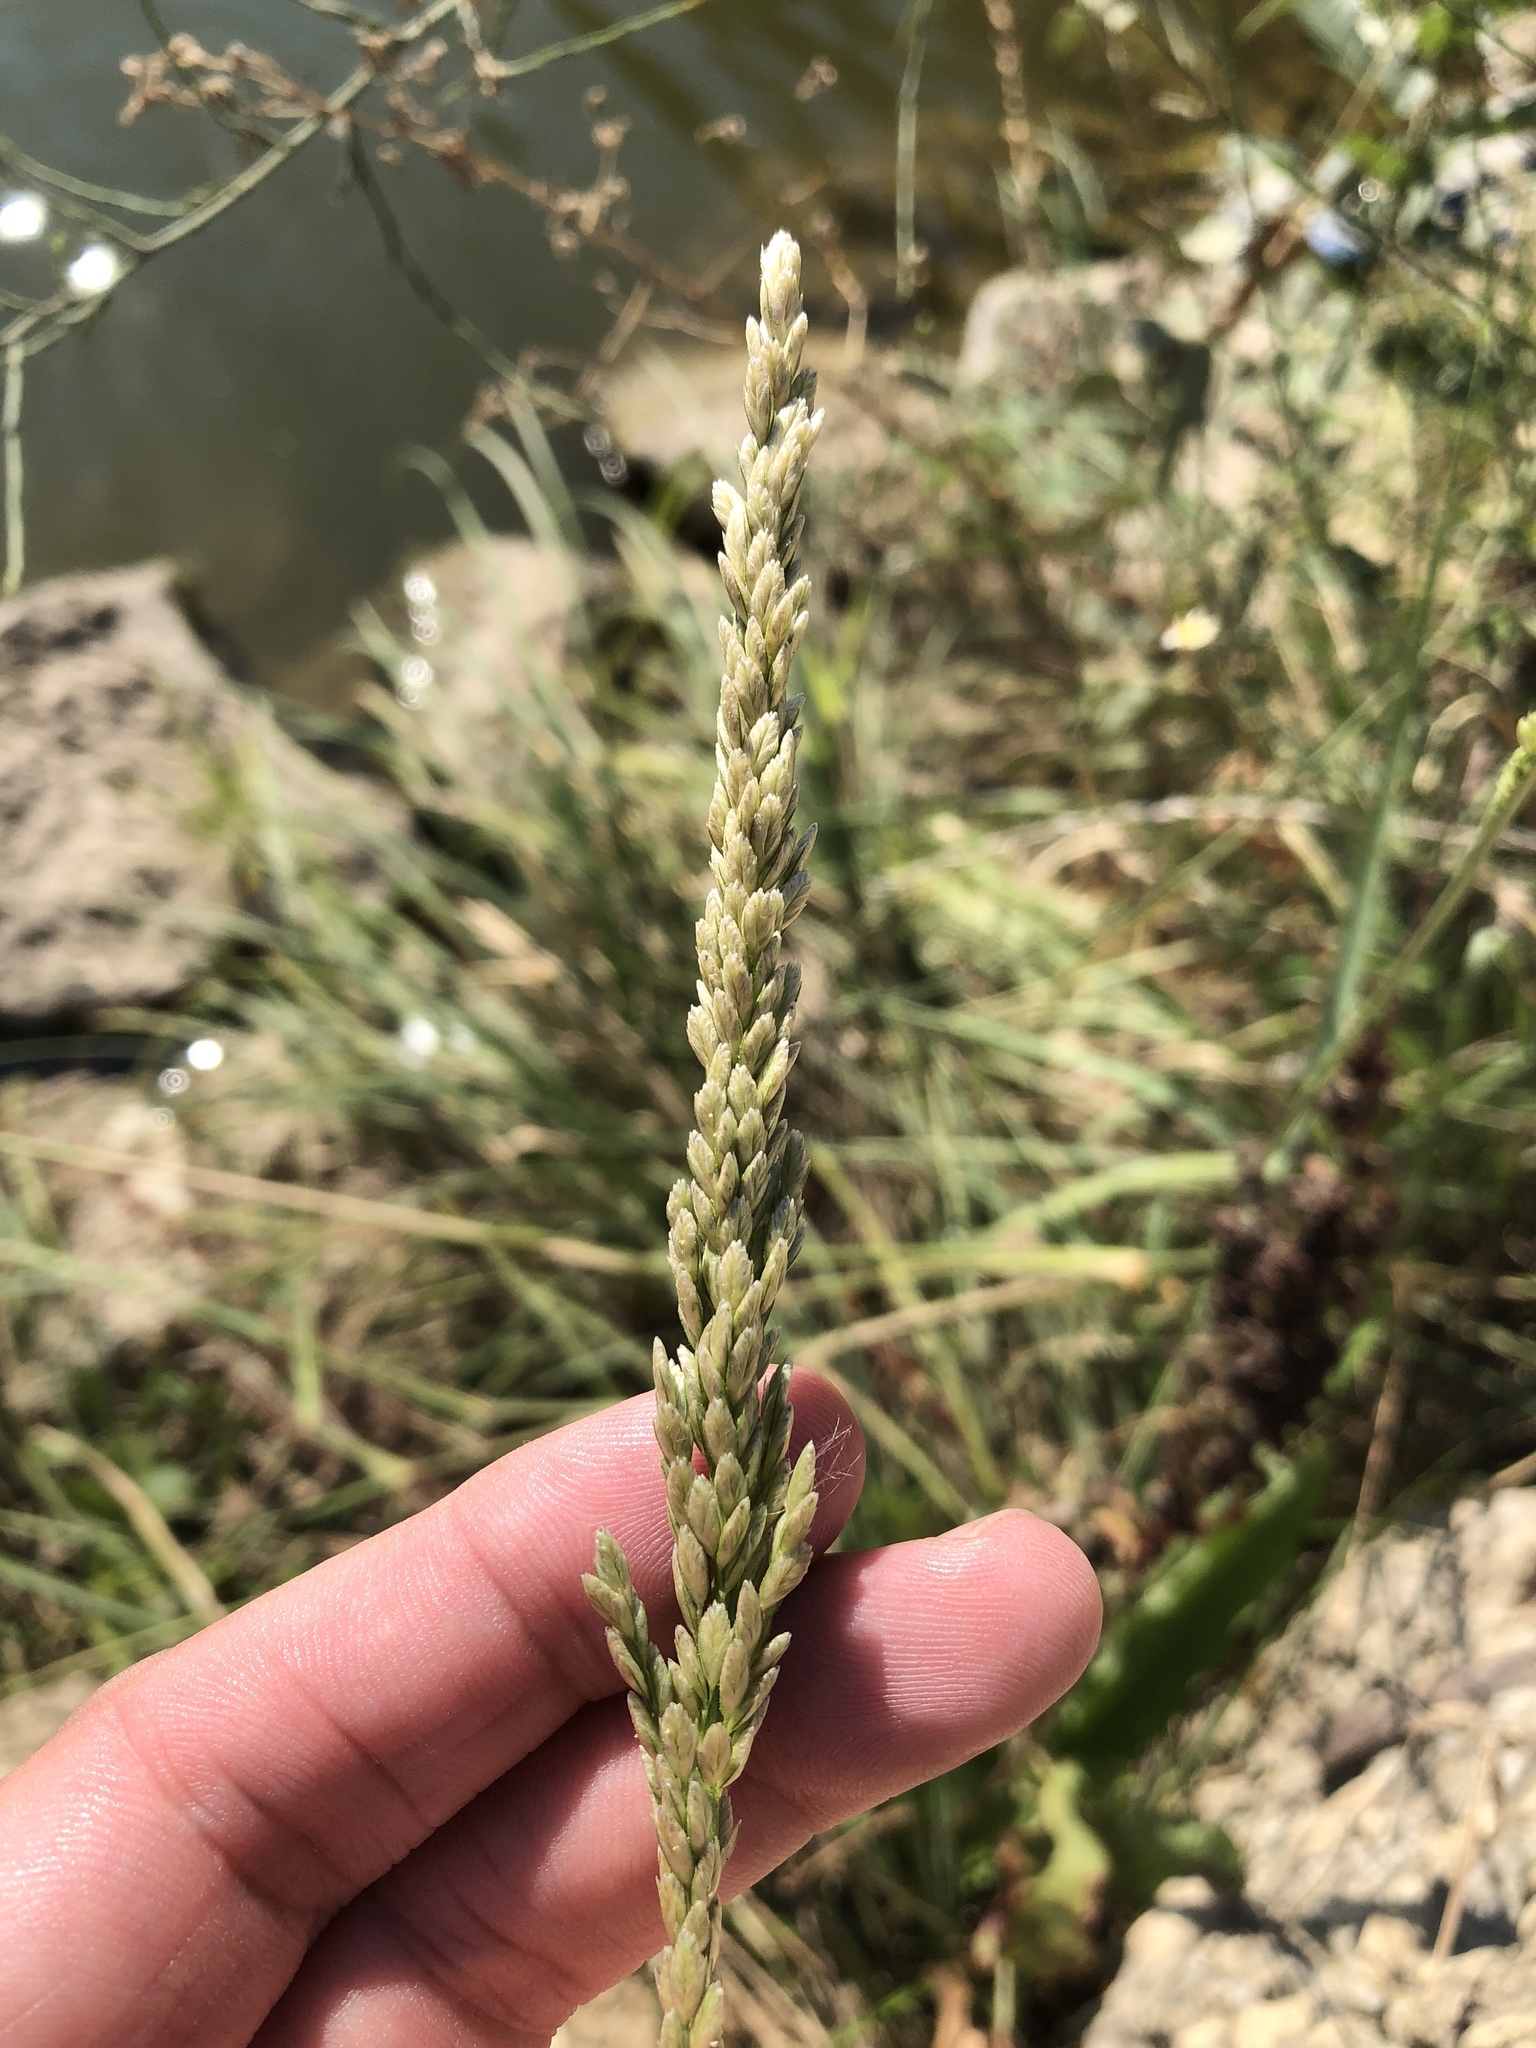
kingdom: Plantae
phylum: Tracheophyta
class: Liliopsida
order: Poales
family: Poaceae
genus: Tridens
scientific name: Tridens albescens
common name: White tridens
